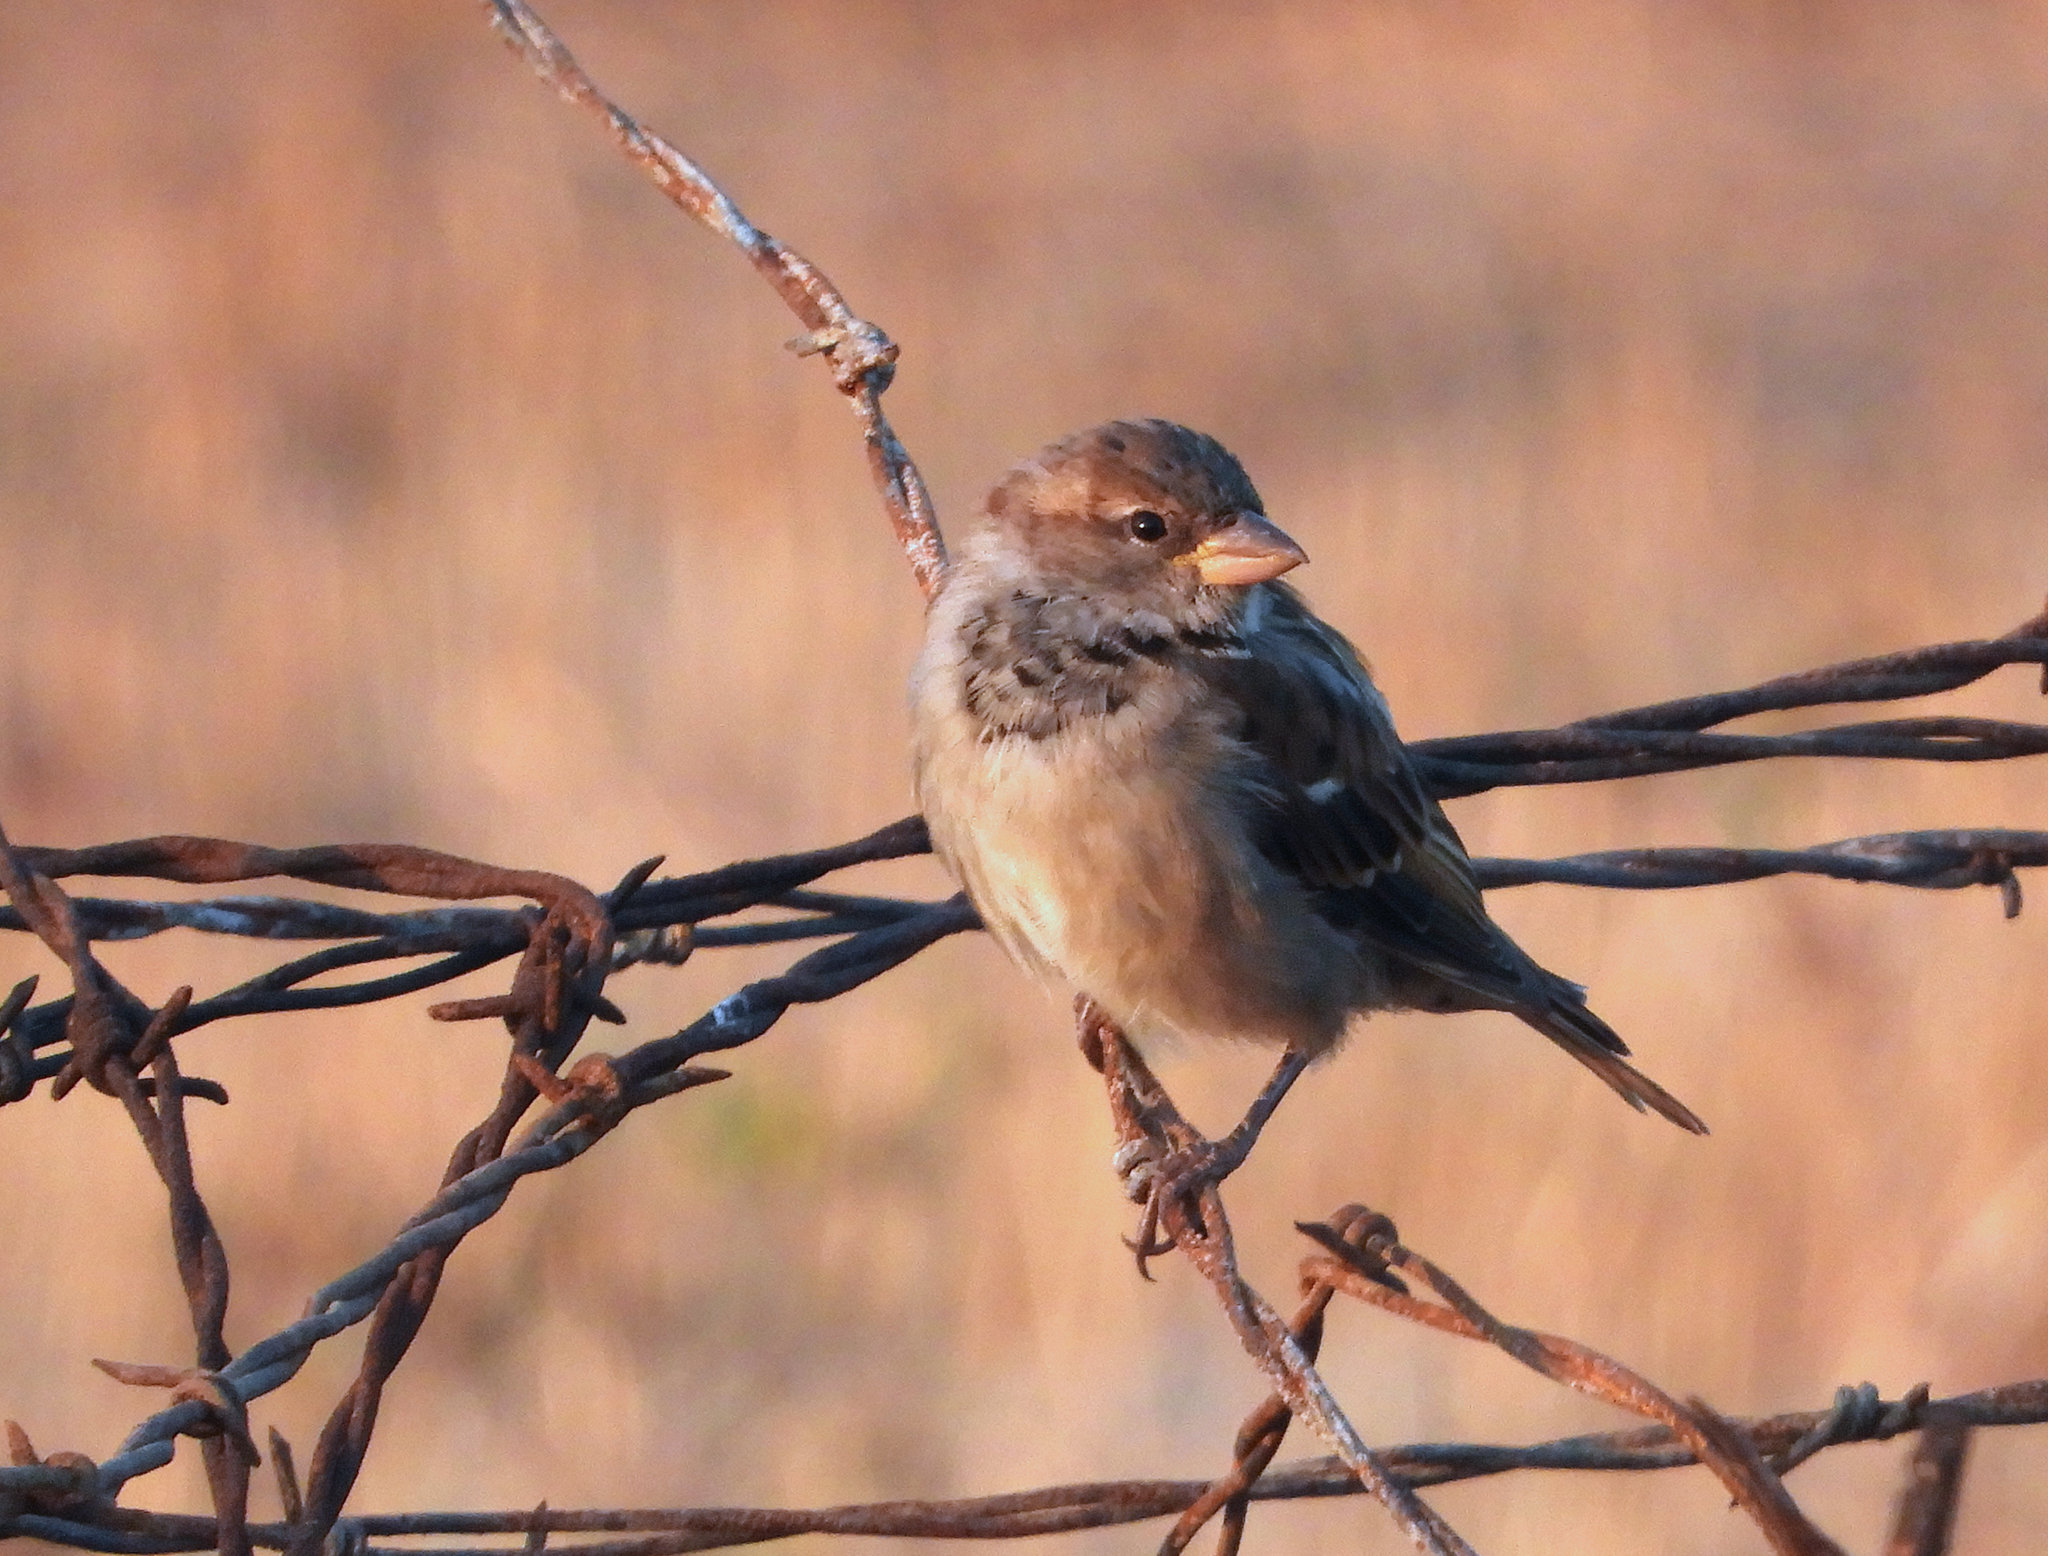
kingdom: Animalia
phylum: Chordata
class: Aves
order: Passeriformes
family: Passeridae
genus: Passer
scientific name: Passer domesticus
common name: House sparrow
